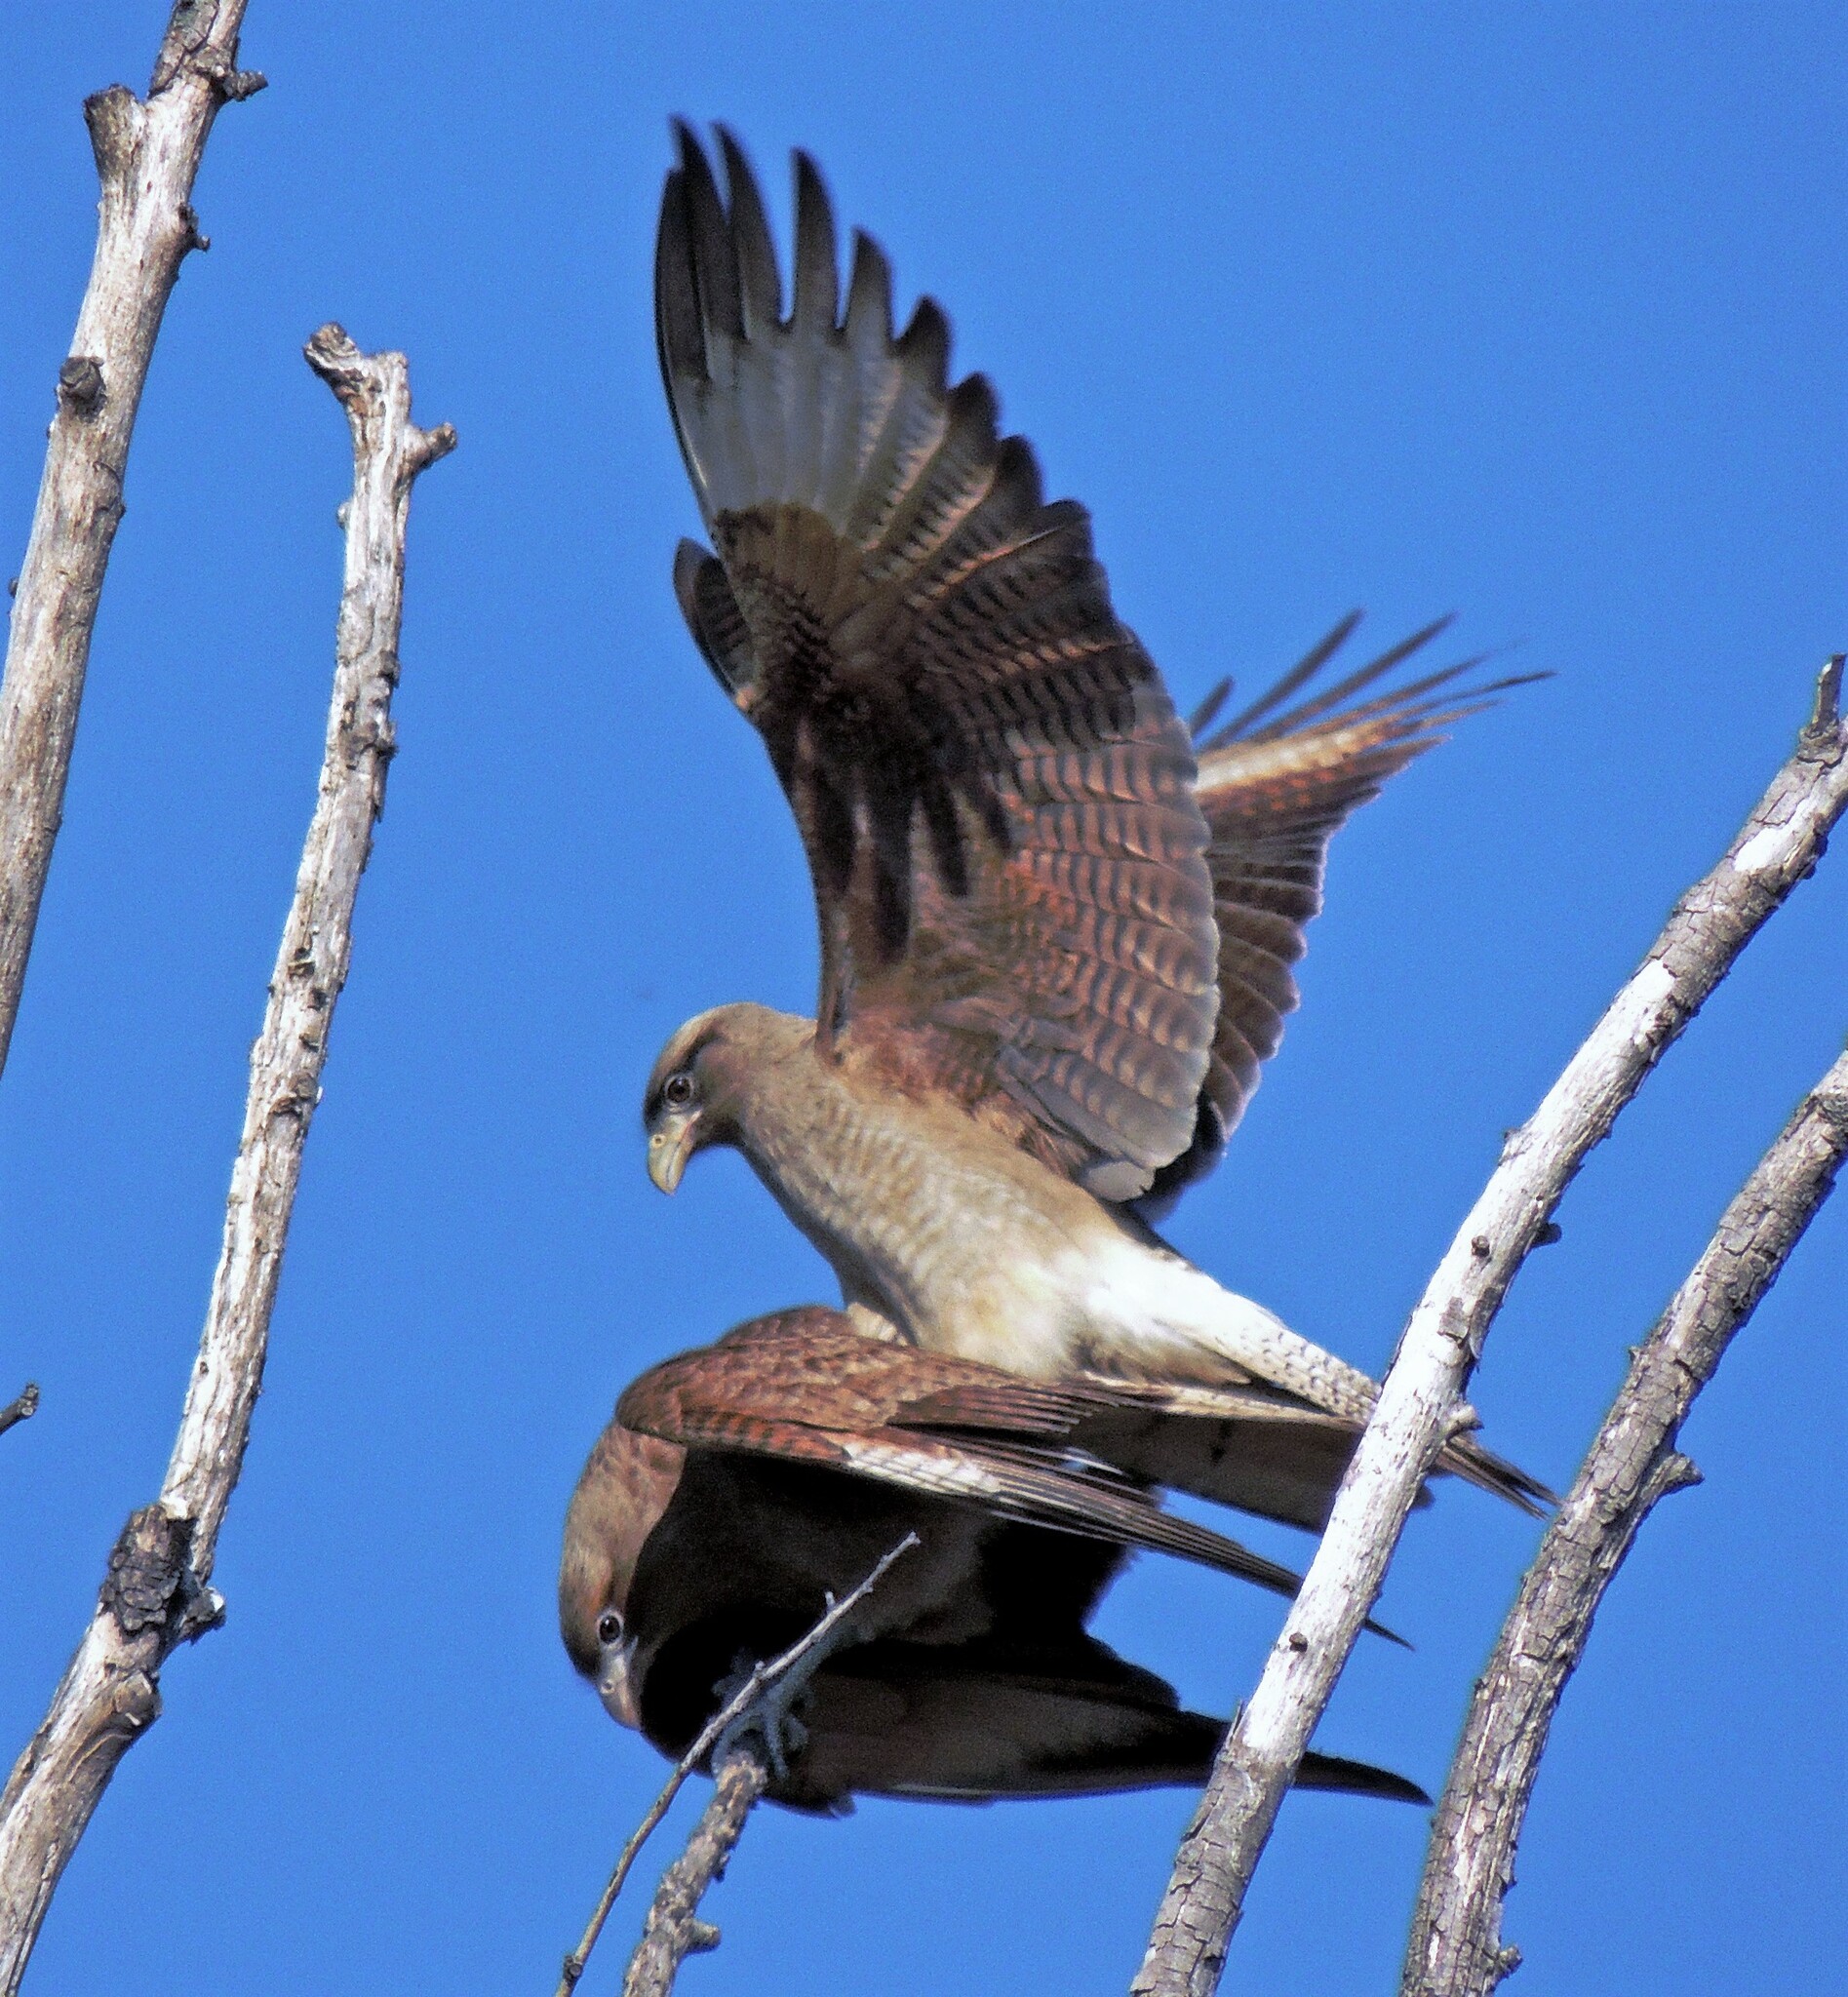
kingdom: Animalia
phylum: Chordata
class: Aves
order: Falconiformes
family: Falconidae
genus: Daptrius
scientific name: Daptrius
